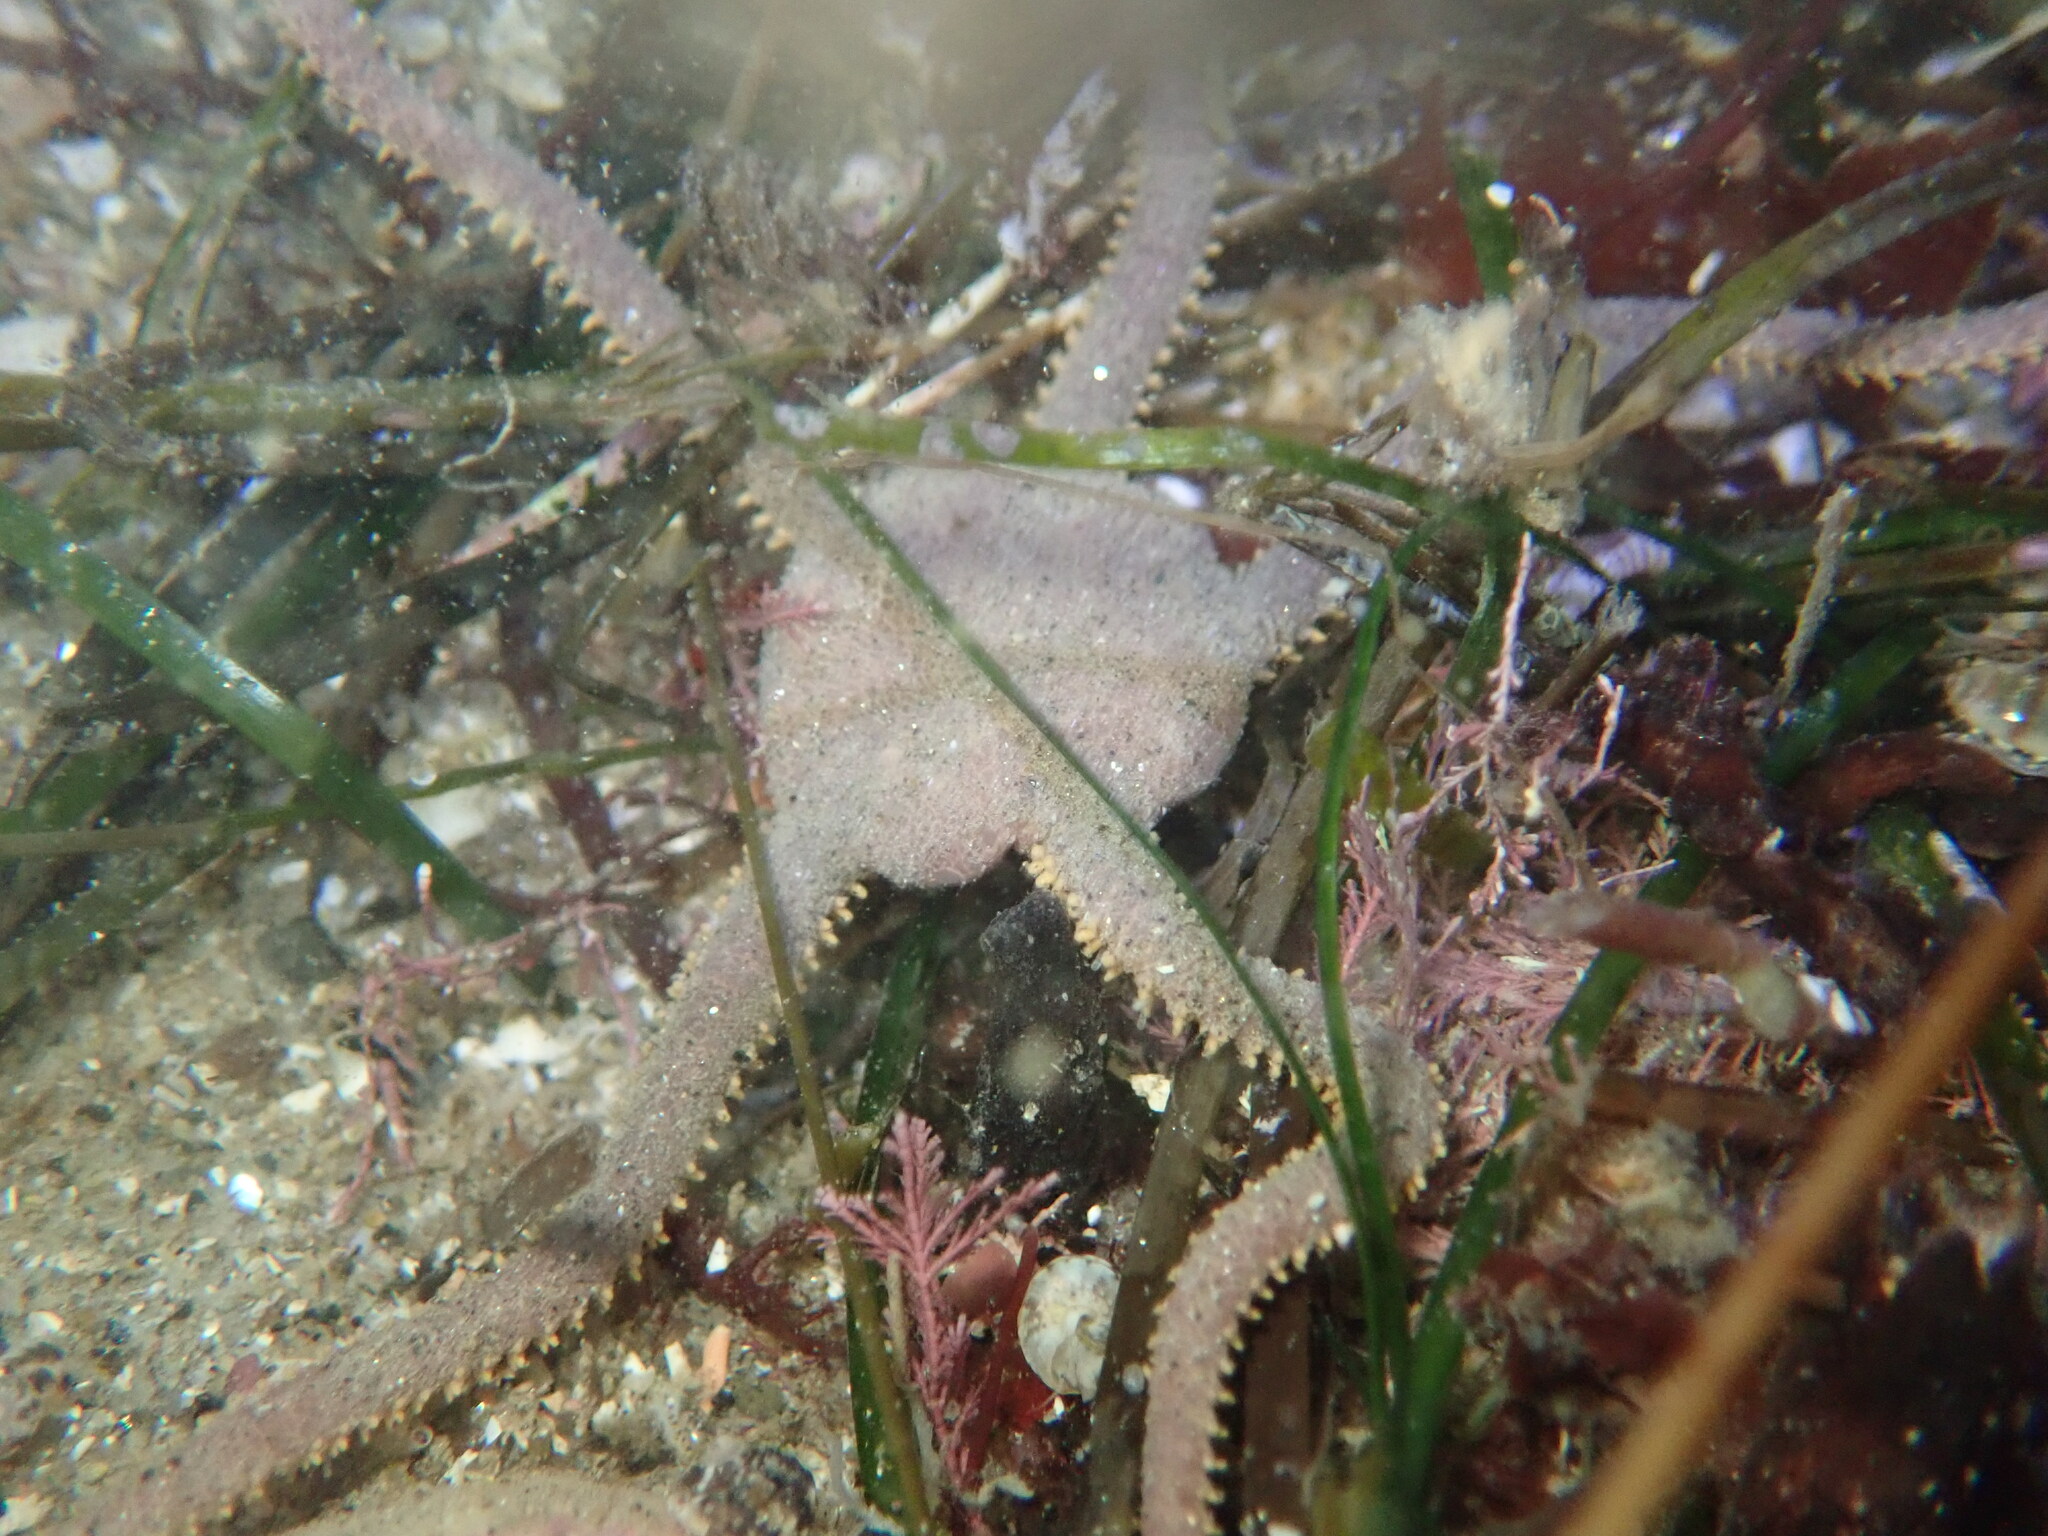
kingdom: Animalia
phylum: Echinodermata
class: Ophiuroidea
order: Amphilepidida
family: Hemieuryalidae
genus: Ophioplocus
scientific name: Ophioplocus esmarki
